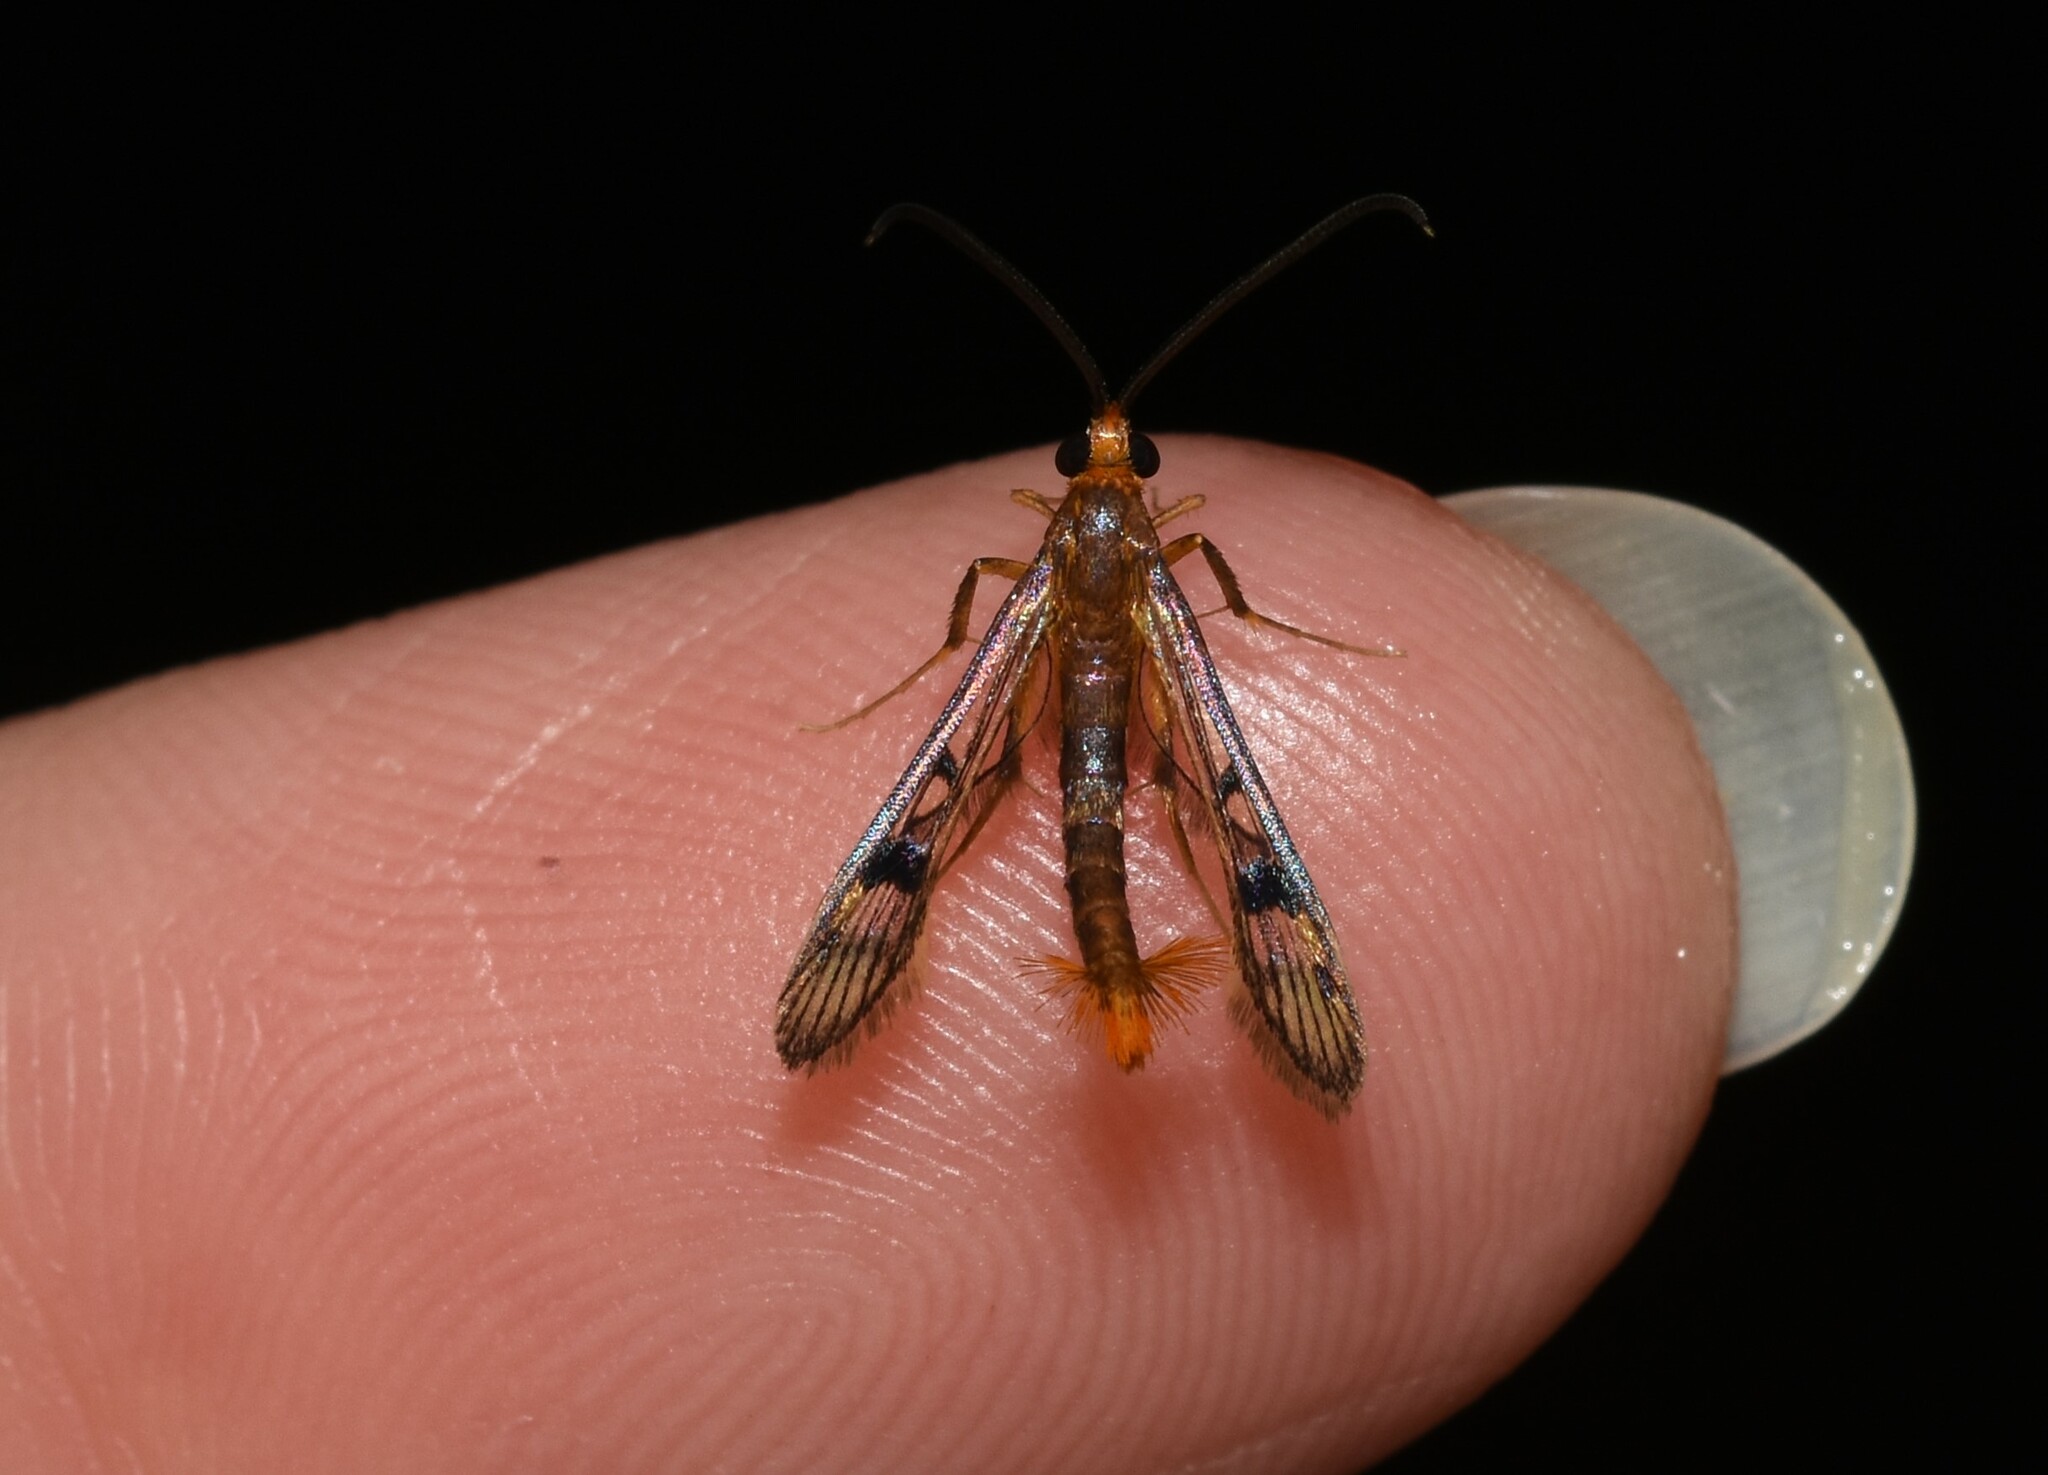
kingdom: Animalia
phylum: Arthropoda
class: Insecta
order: Lepidoptera
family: Sesiidae
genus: Synanthedon
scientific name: Synanthedon acerni
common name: Maple callus borer moth
